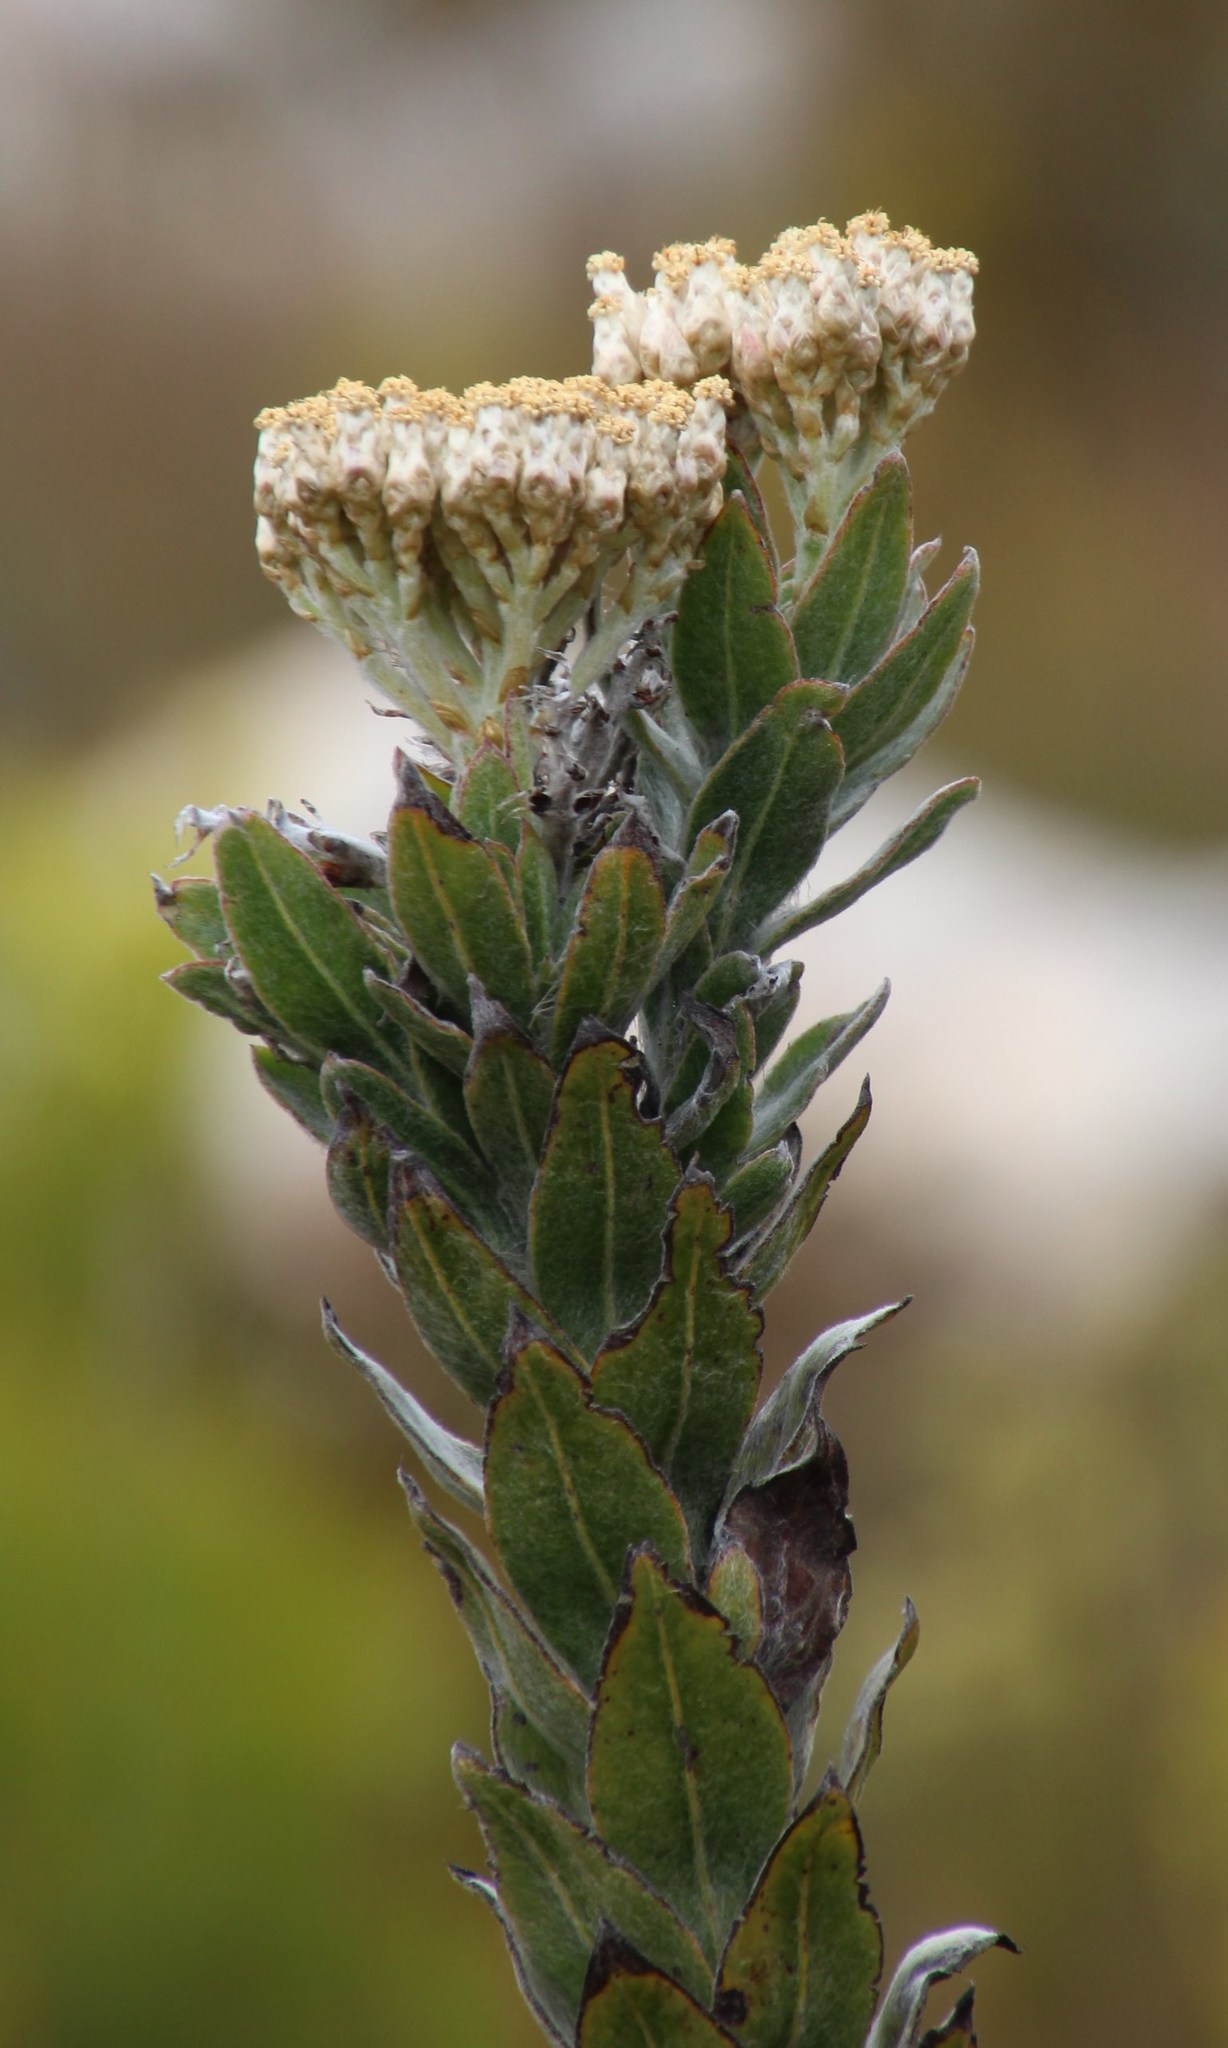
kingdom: Plantae
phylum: Tracheophyta
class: Magnoliopsida
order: Asterales
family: Asteraceae
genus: Syncarpha
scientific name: Syncarpha milleflora
